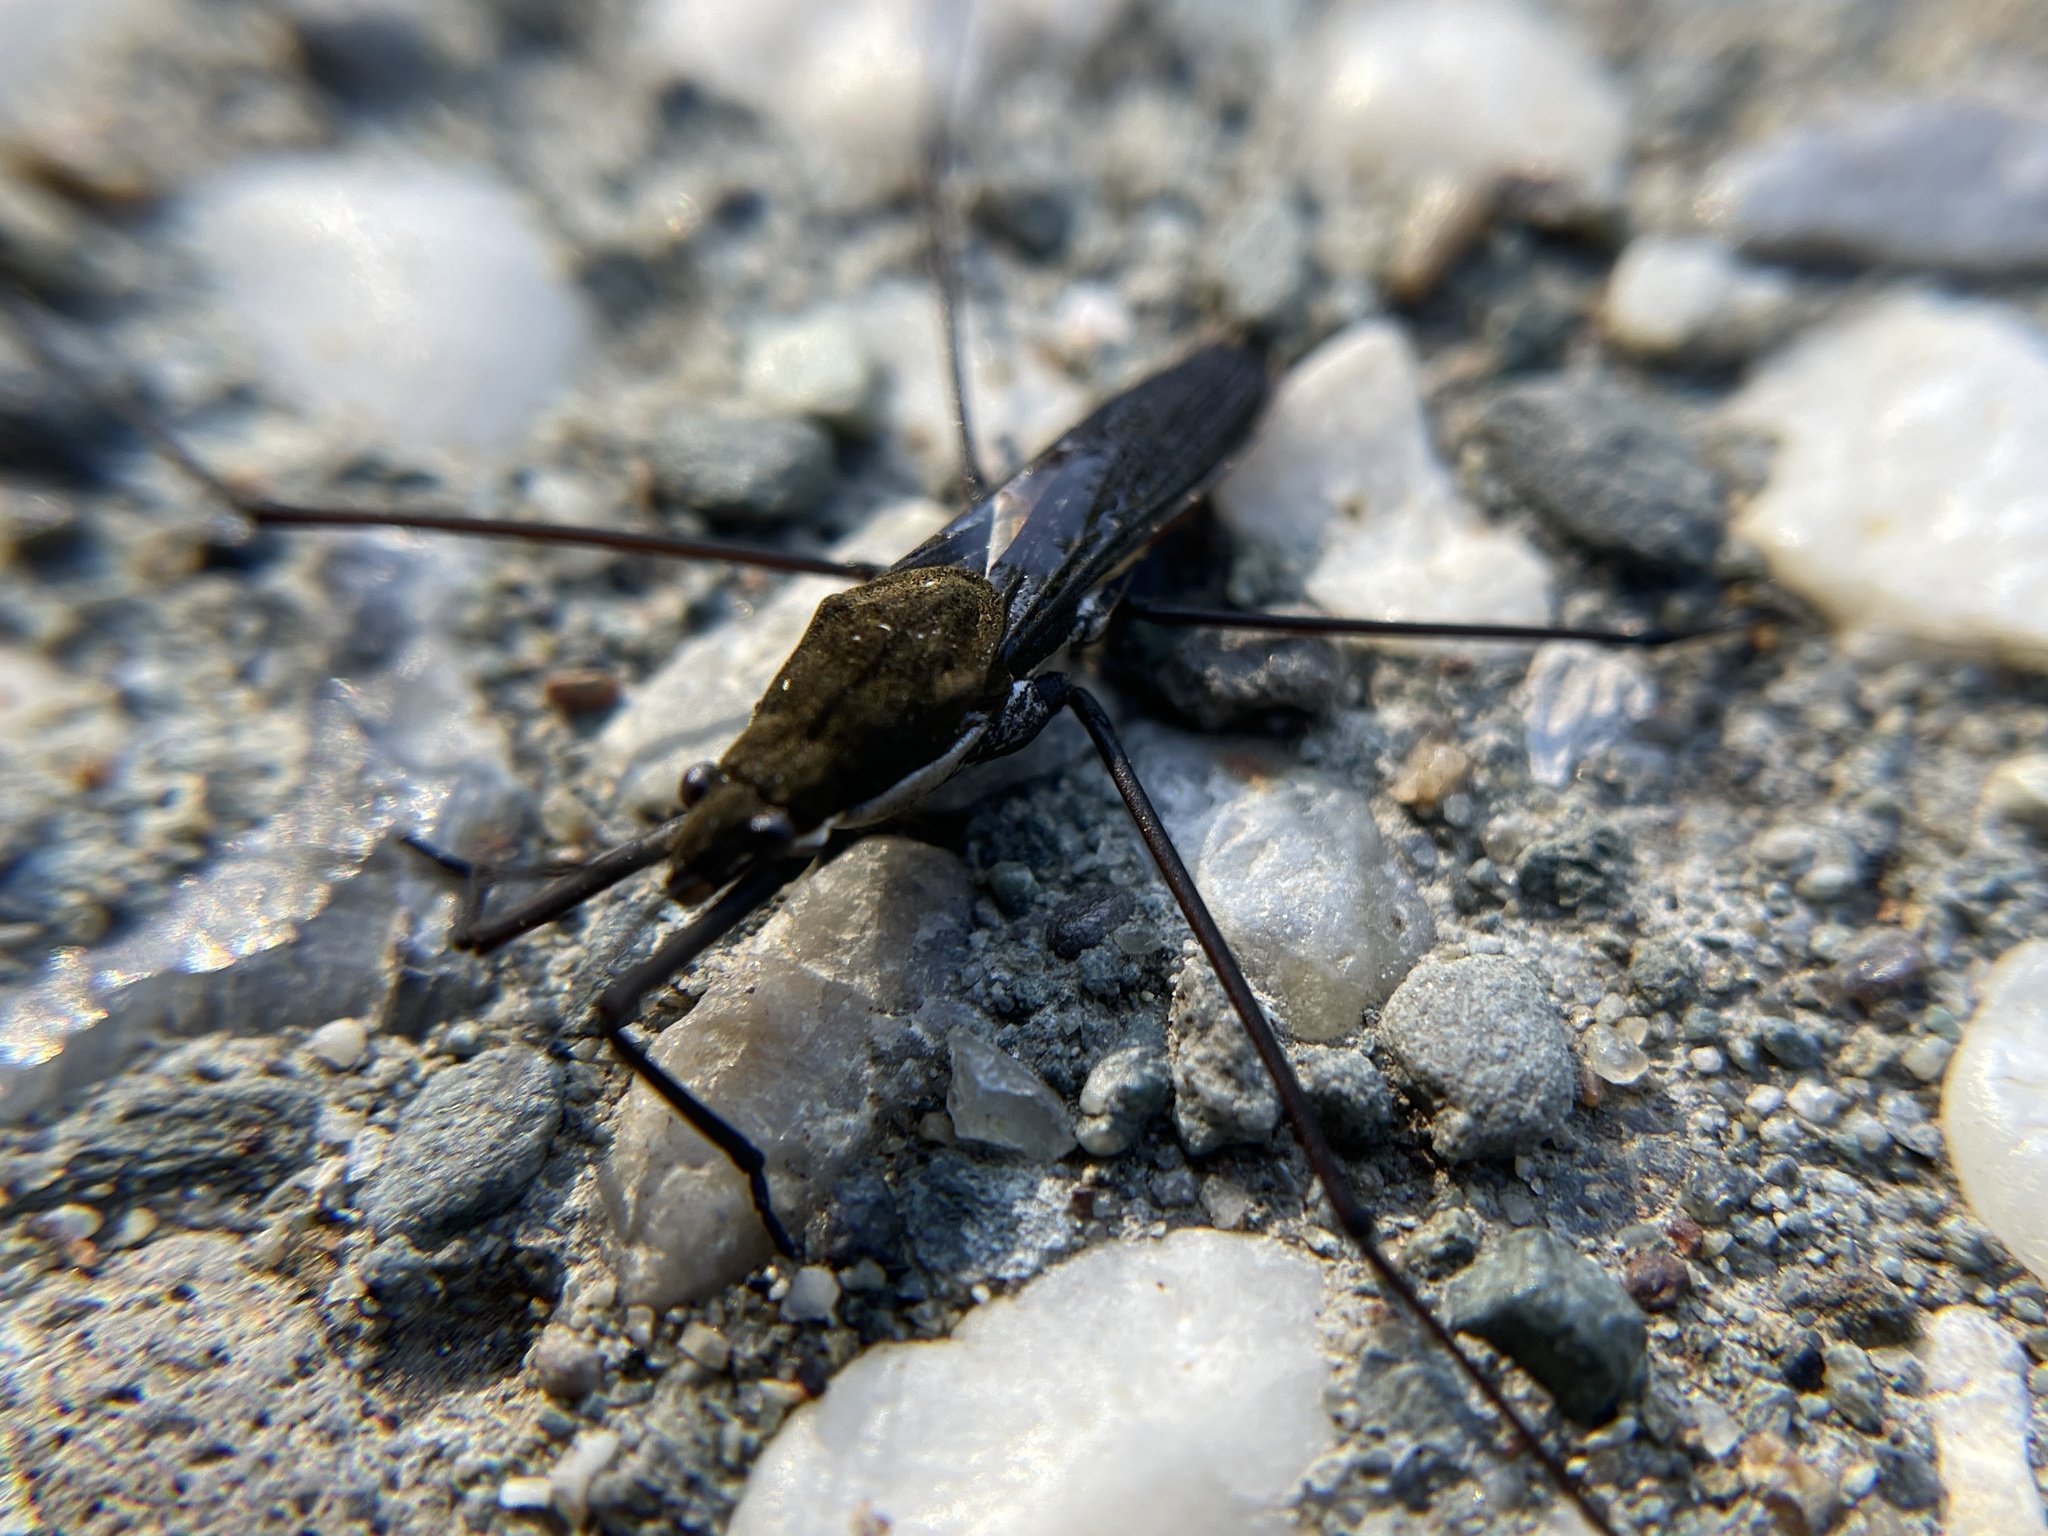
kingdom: Animalia
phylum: Arthropoda
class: Insecta
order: Hemiptera
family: Gerridae
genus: Aquarius
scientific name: Aquarius remigis
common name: Common water strider
